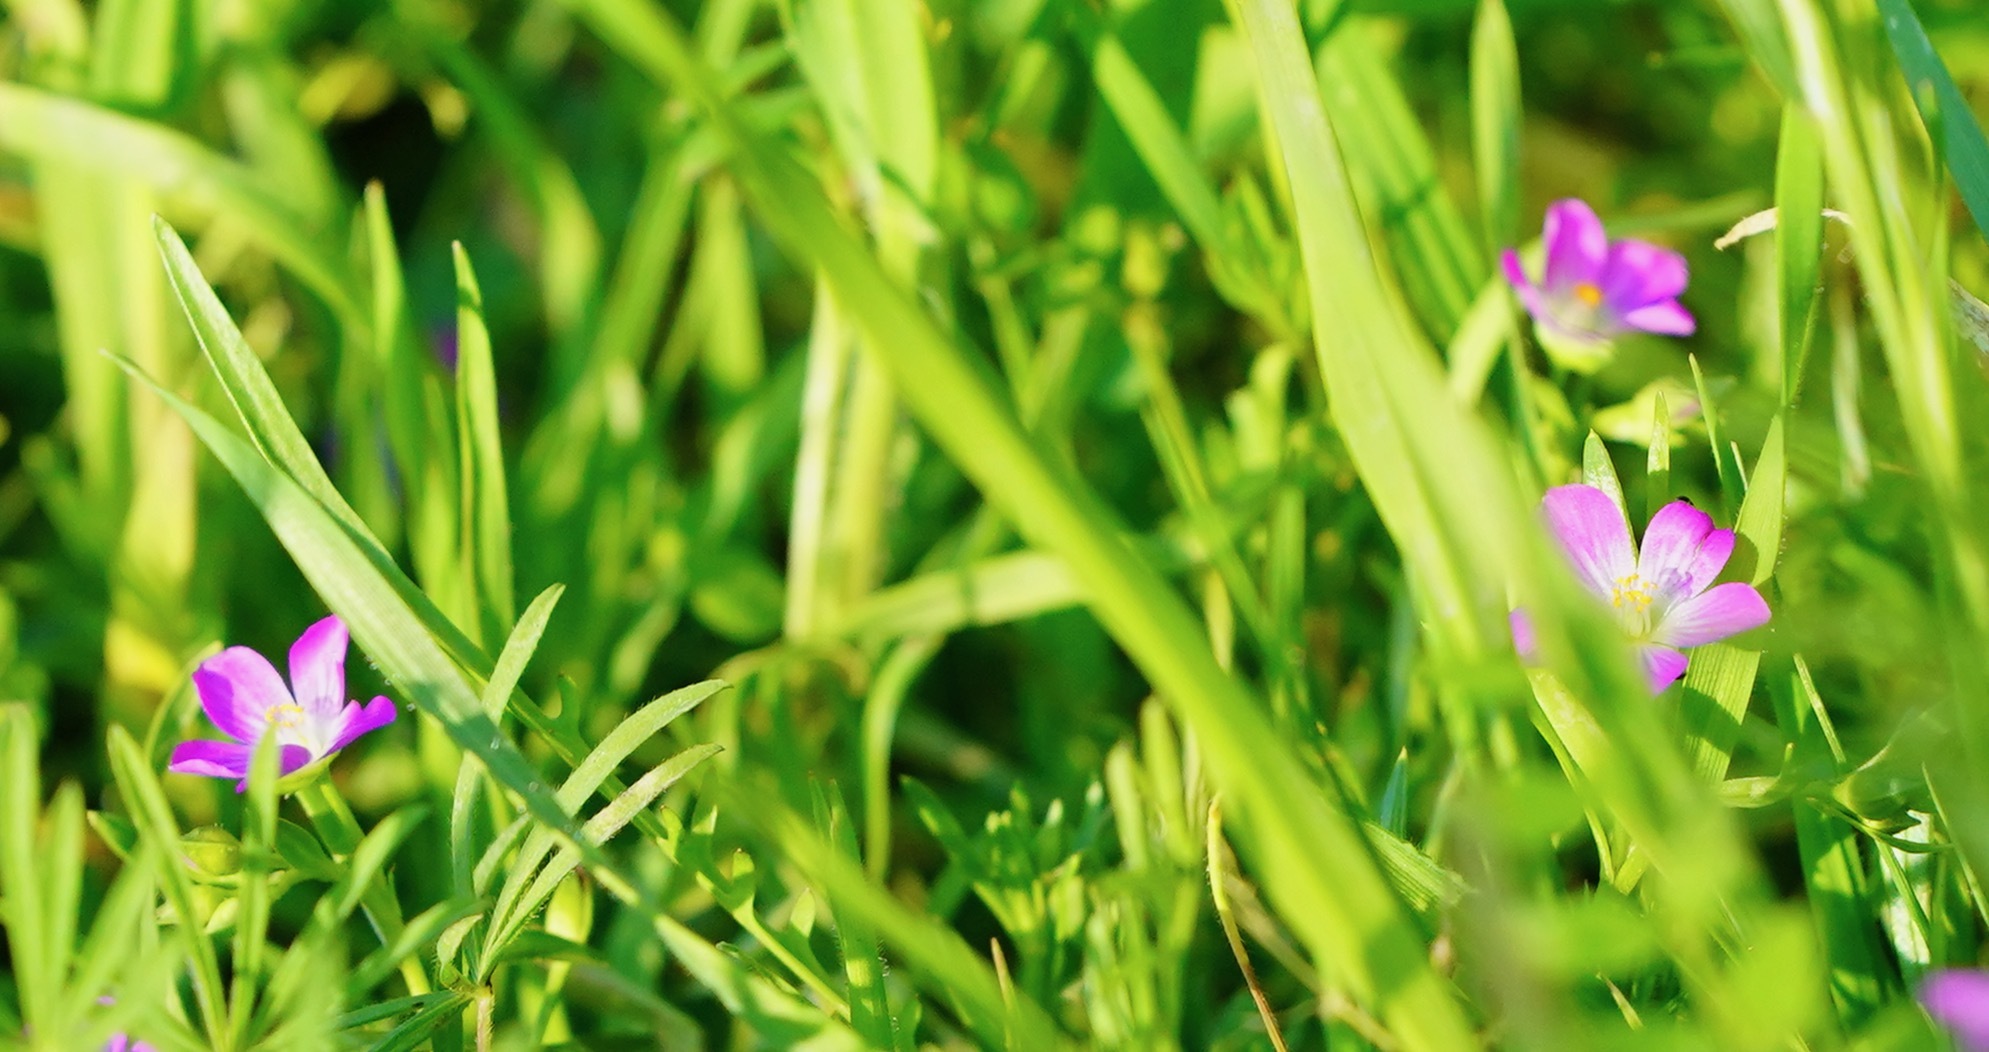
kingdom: Plantae
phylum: Tracheophyta
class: Magnoliopsida
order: Caryophyllales
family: Montiaceae
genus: Calandrinia
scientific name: Calandrinia menziesii
